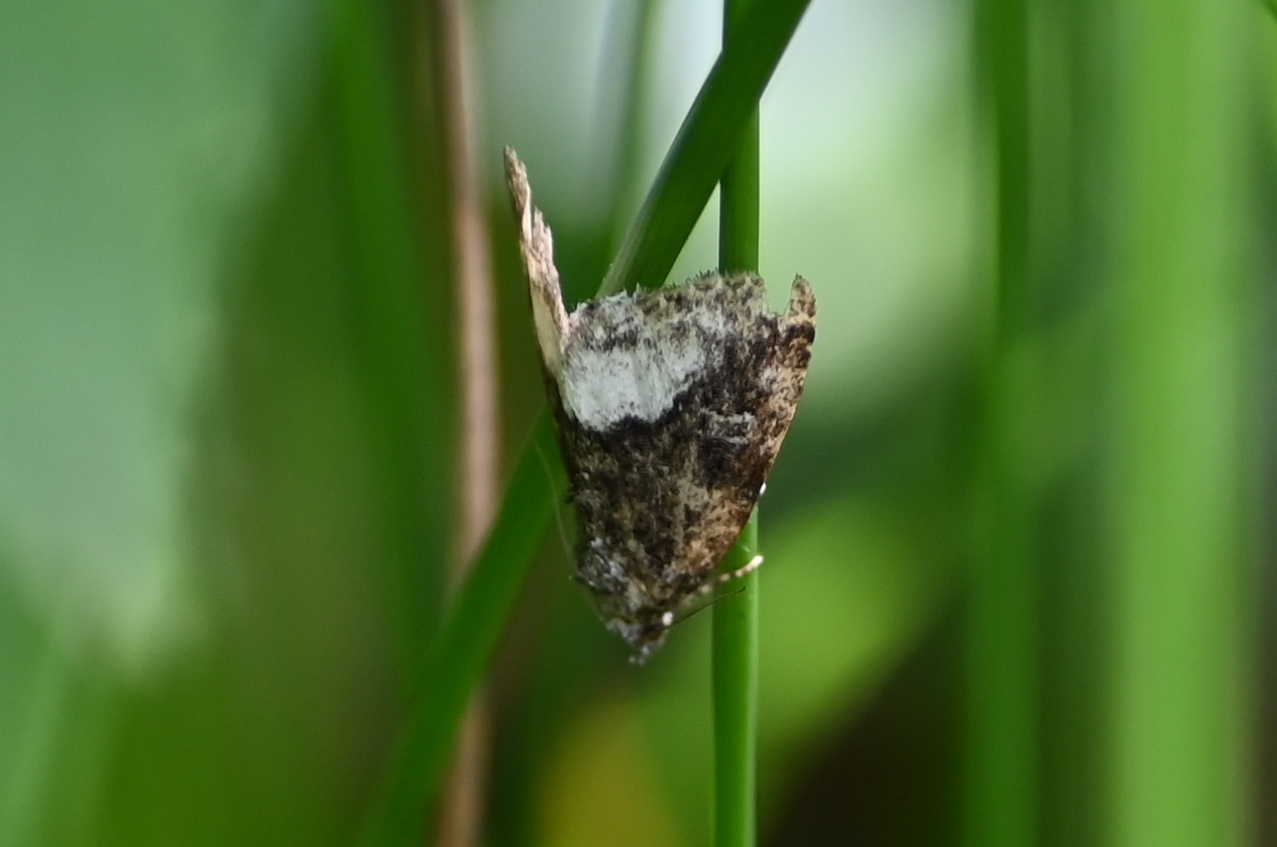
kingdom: Animalia
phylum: Arthropoda
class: Insecta
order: Lepidoptera
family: Noctuidae
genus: Deltote
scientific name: Deltote pygarga
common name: Marbled white spot
